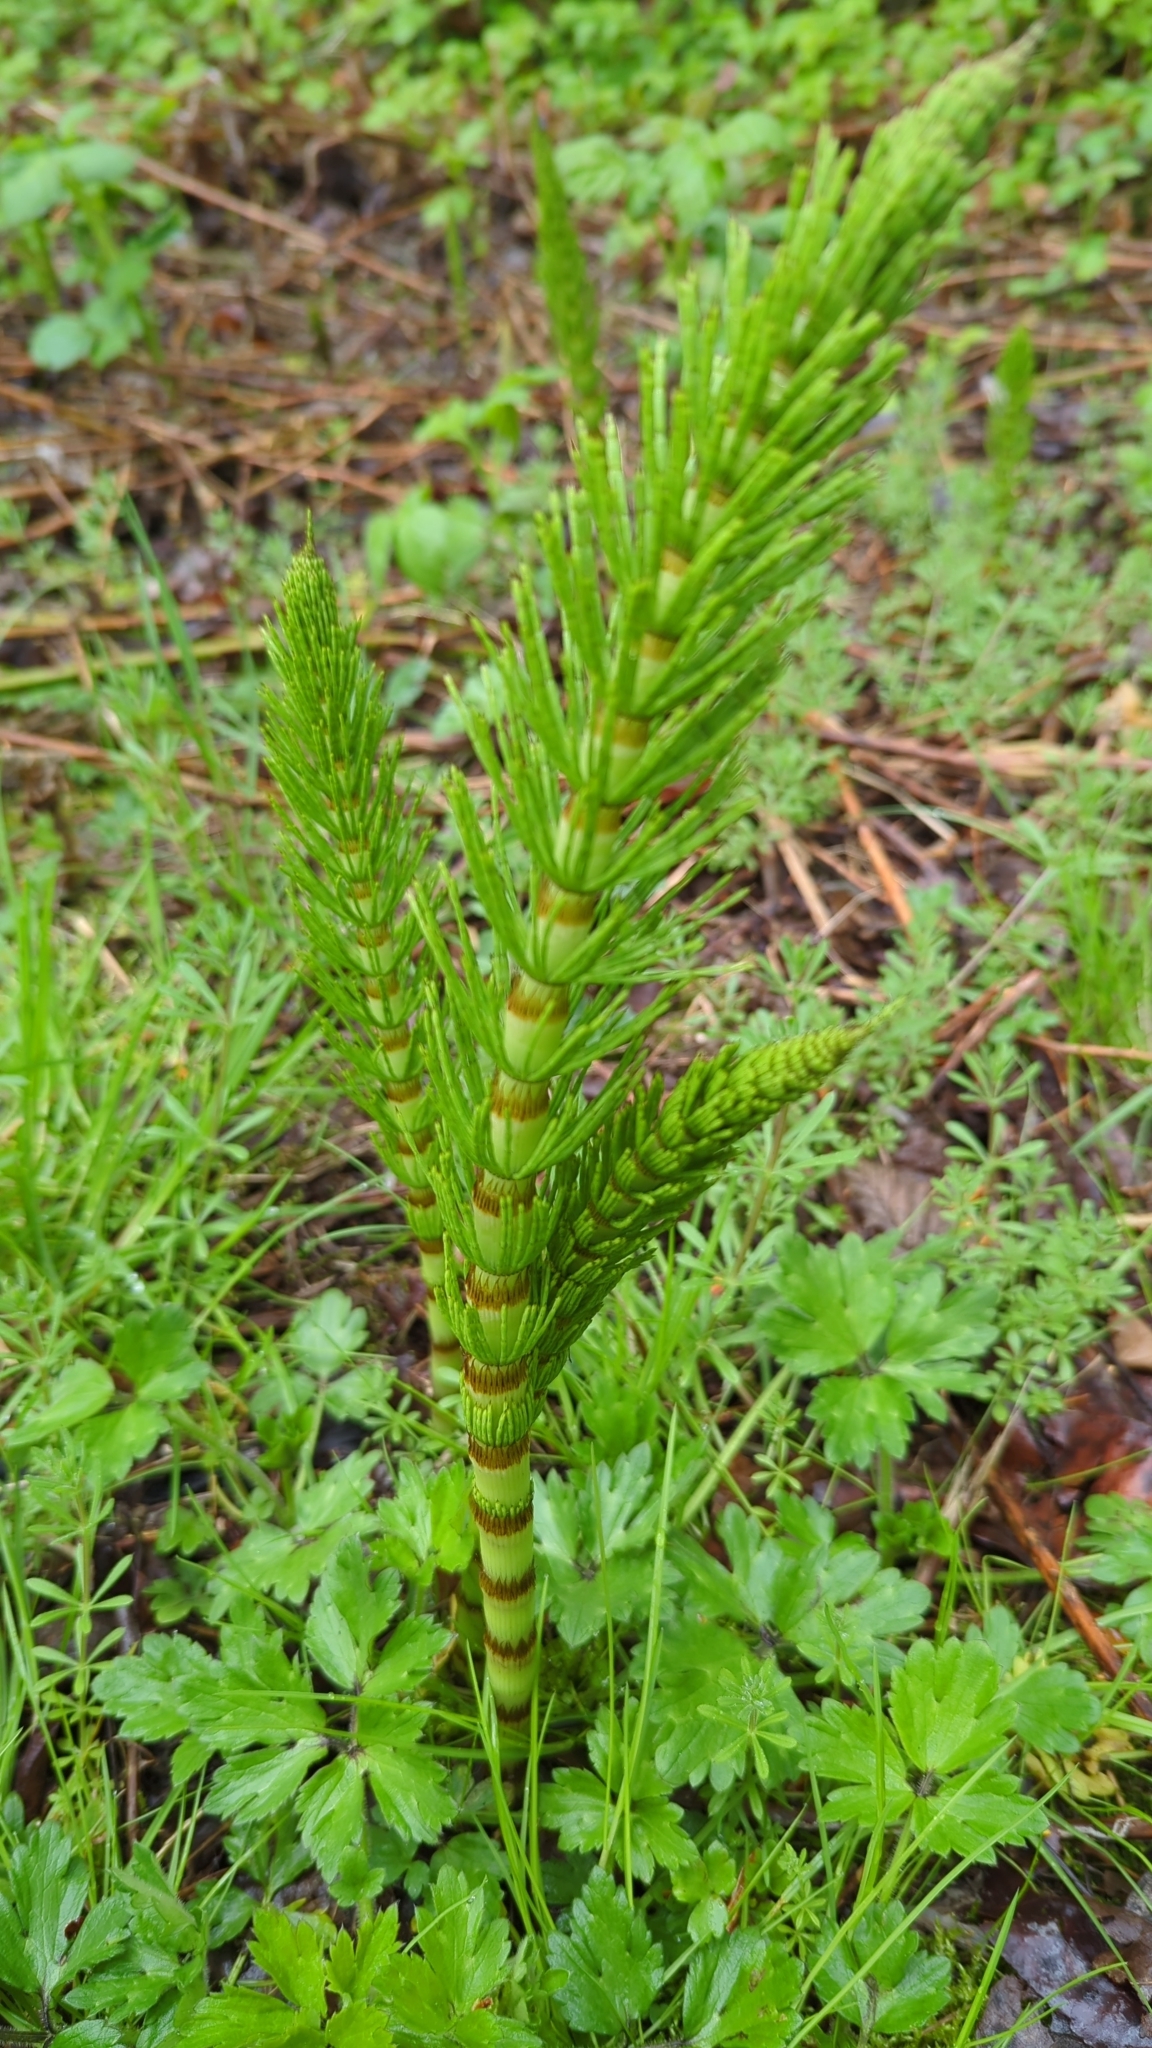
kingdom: Plantae
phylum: Tracheophyta
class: Polypodiopsida
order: Equisetales
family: Equisetaceae
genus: Equisetum
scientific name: Equisetum braunii
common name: Braun's horsetail
